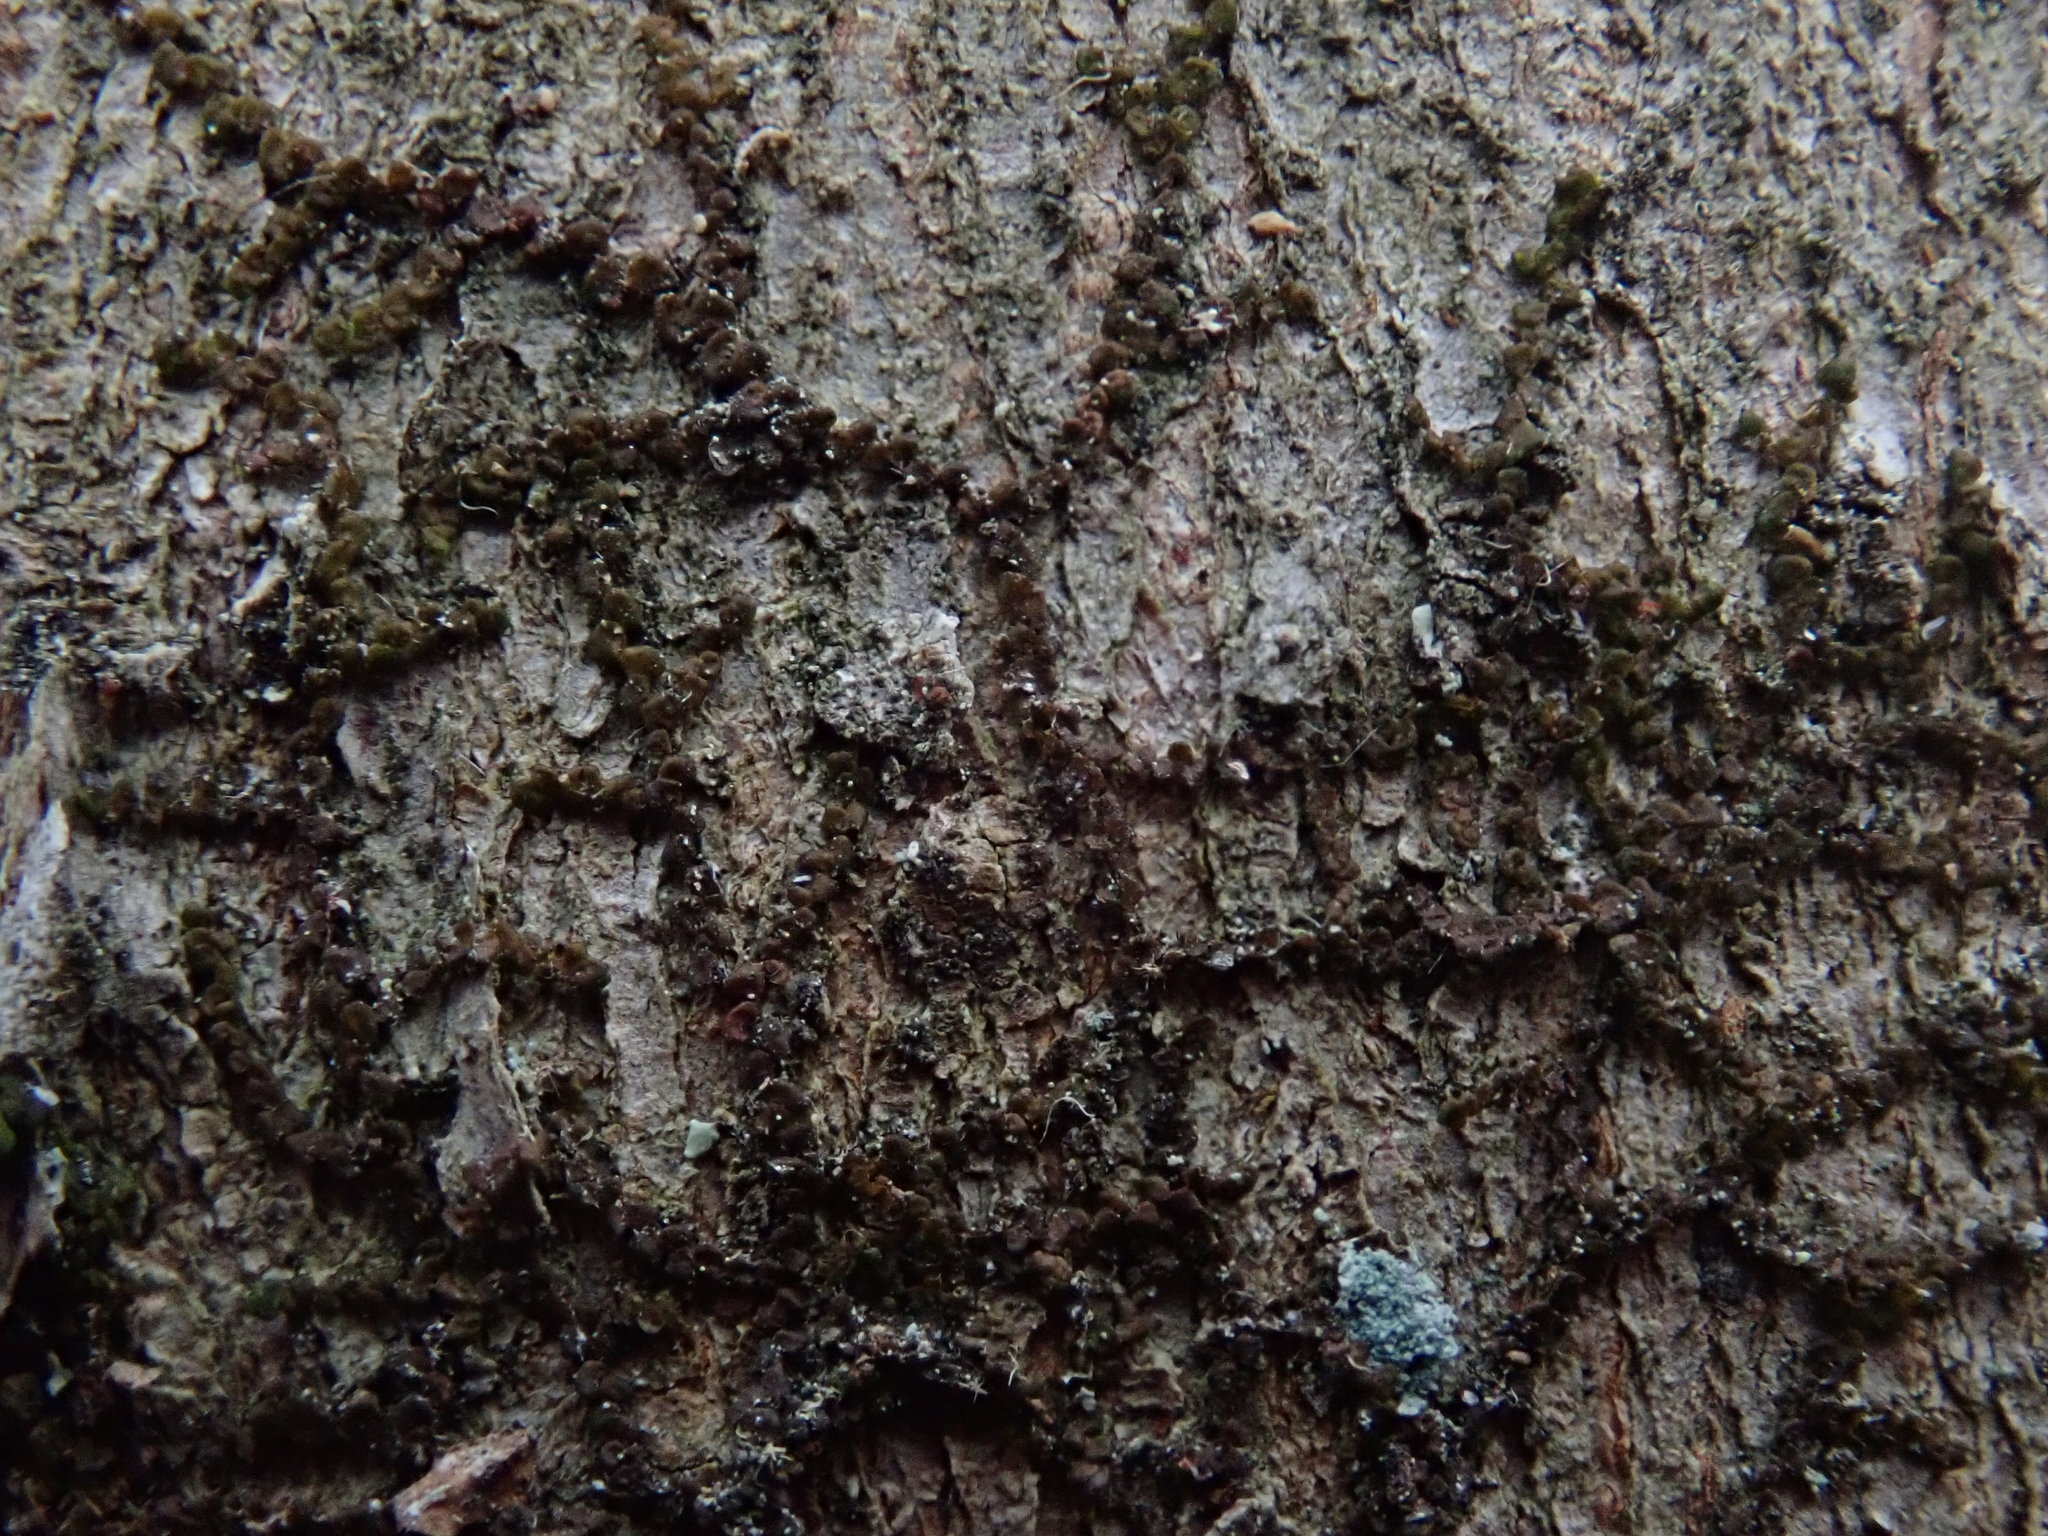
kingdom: Plantae
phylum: Marchantiophyta
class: Jungermanniopsida
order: Porellales
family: Frullaniaceae
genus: Frullania
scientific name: Frullania
